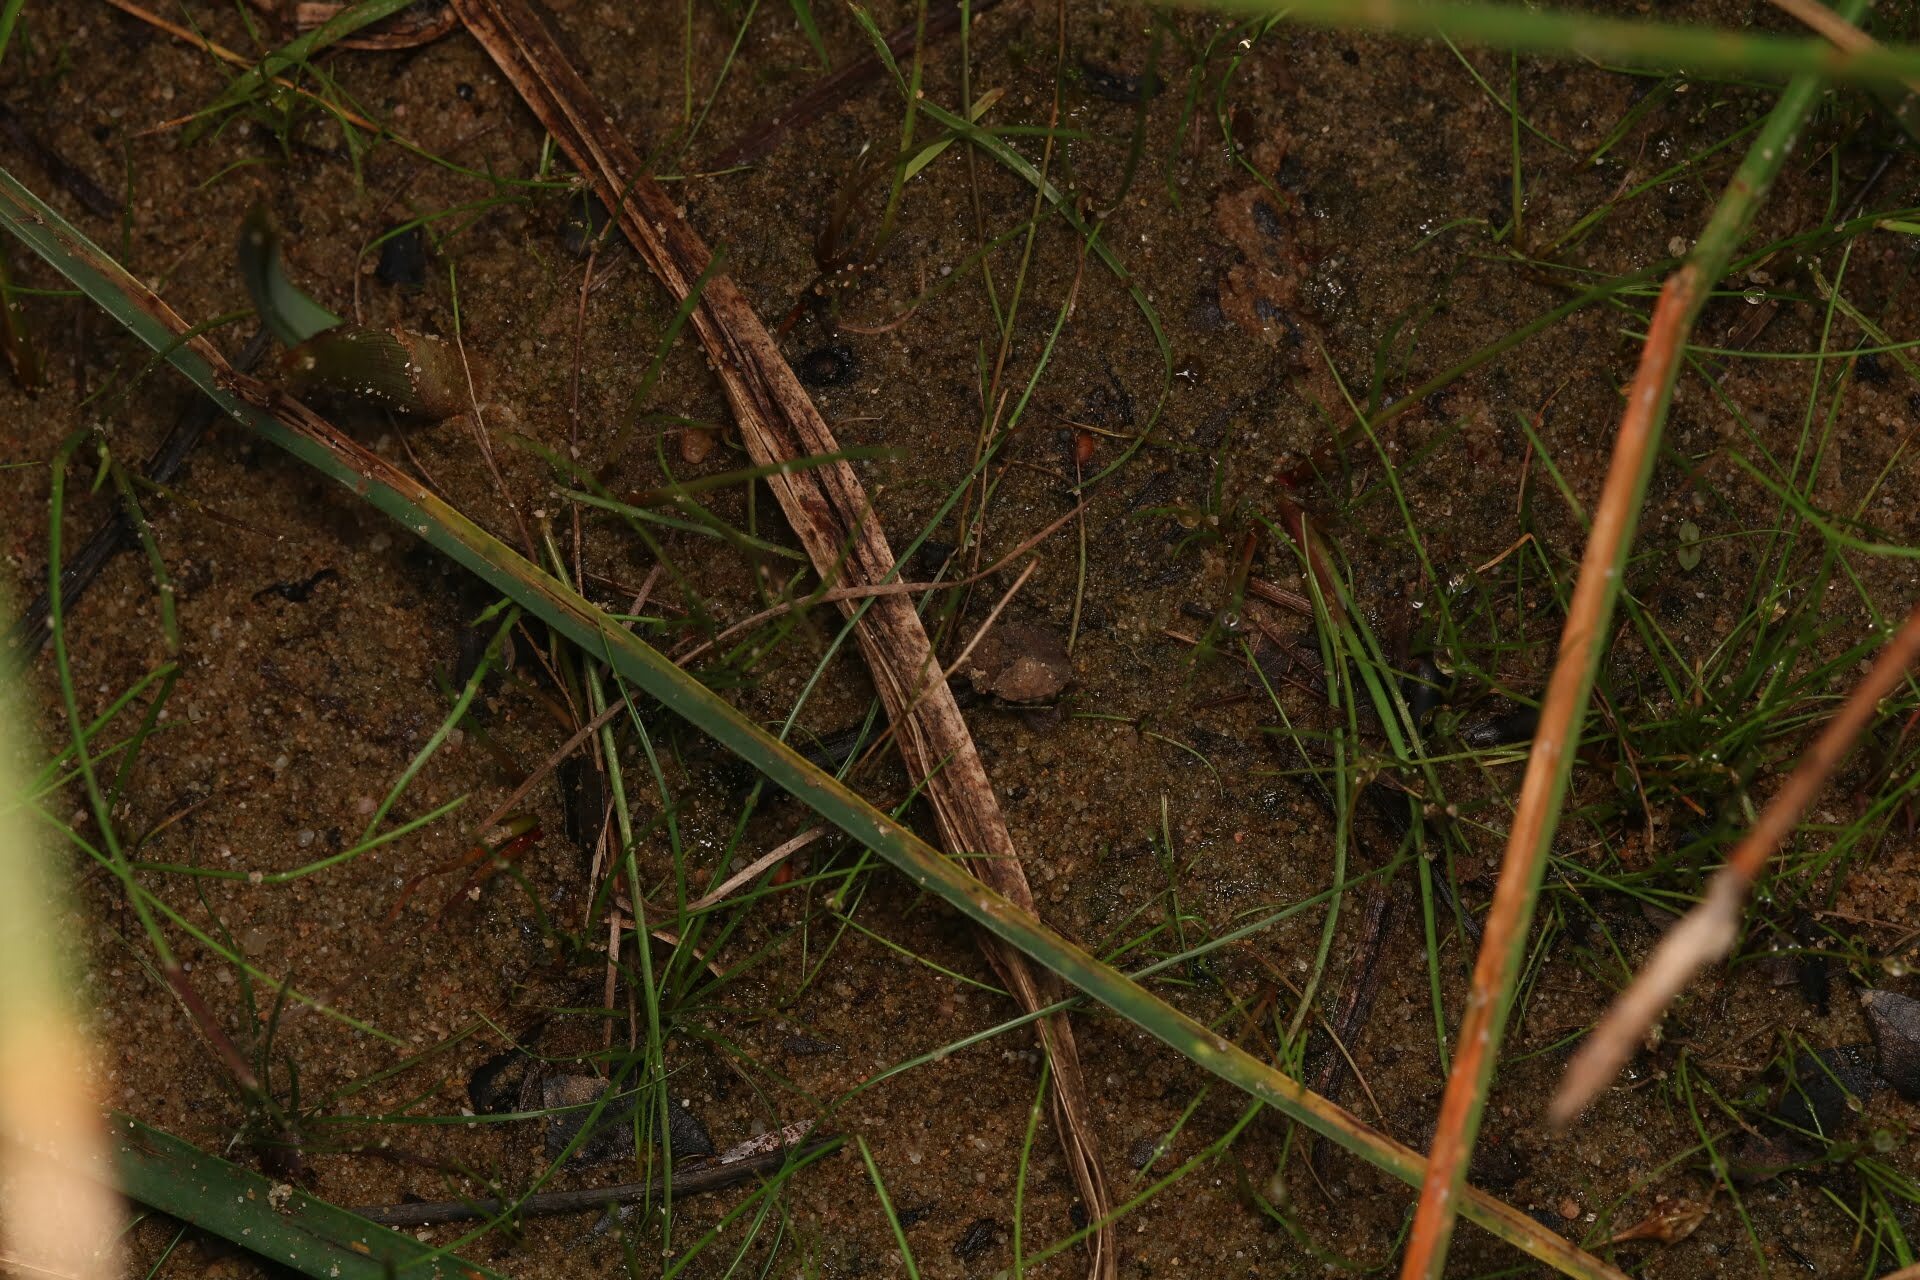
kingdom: Animalia
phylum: Arthropoda
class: Insecta
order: Hemiptera
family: Gelastocoridae
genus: Gelastocoris
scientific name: Gelastocoris oculatus
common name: Toad bug
